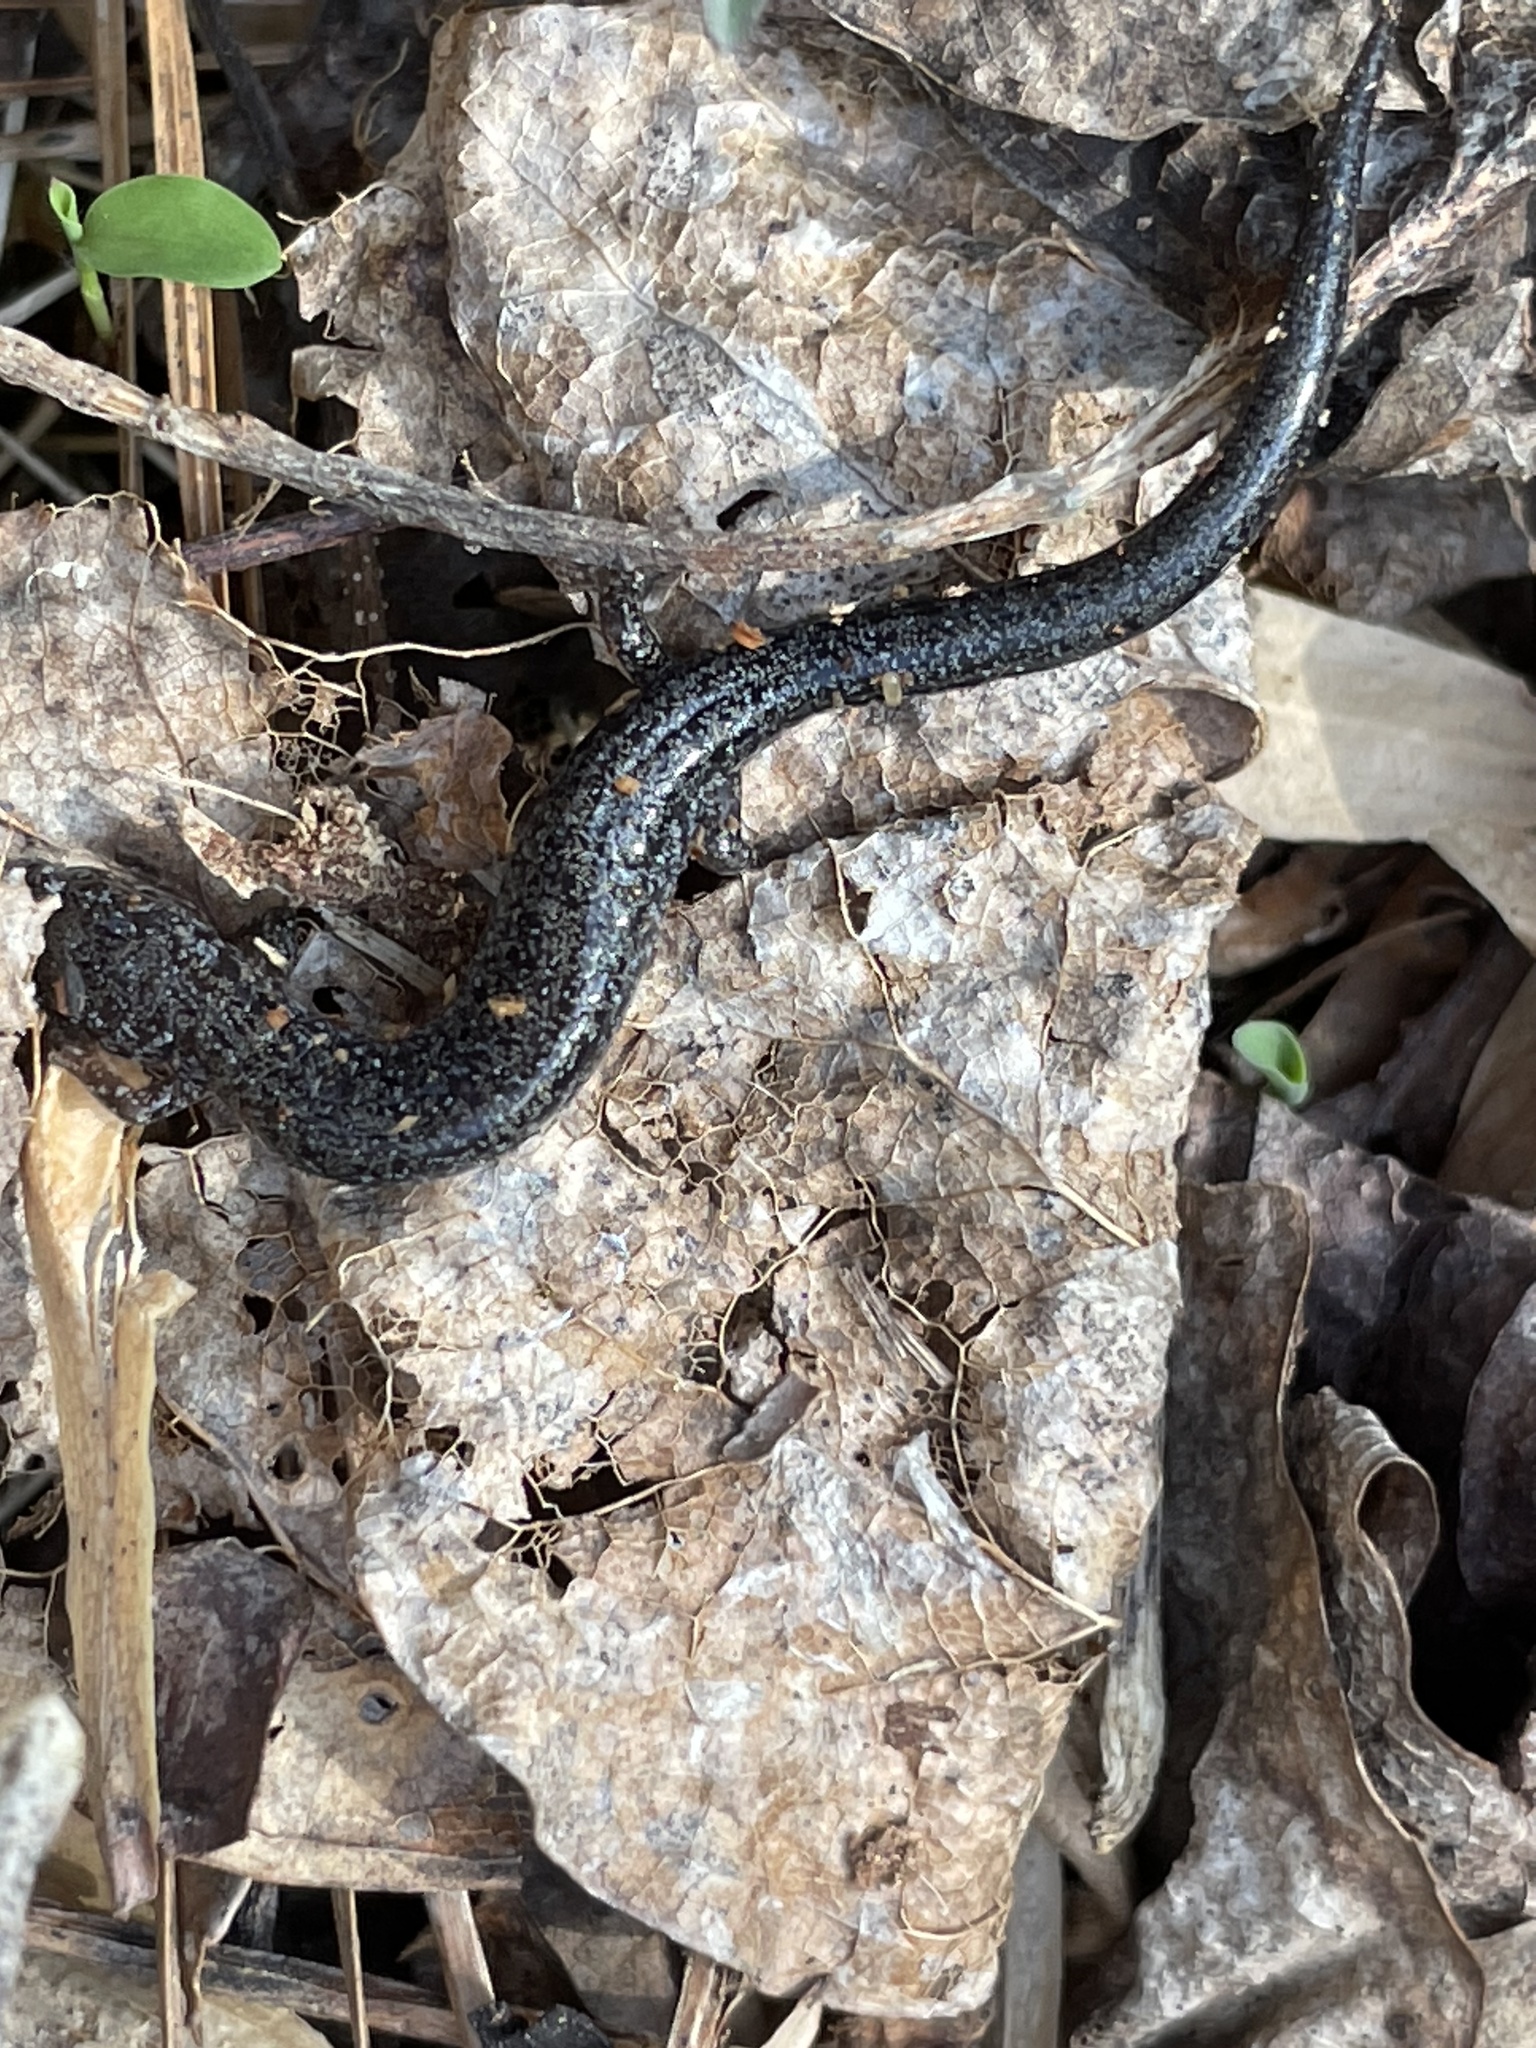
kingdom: Animalia
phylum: Chordata
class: Amphibia
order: Caudata
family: Plethodontidae
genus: Plethodon
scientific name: Plethodon cinereus
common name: Redback salamander
